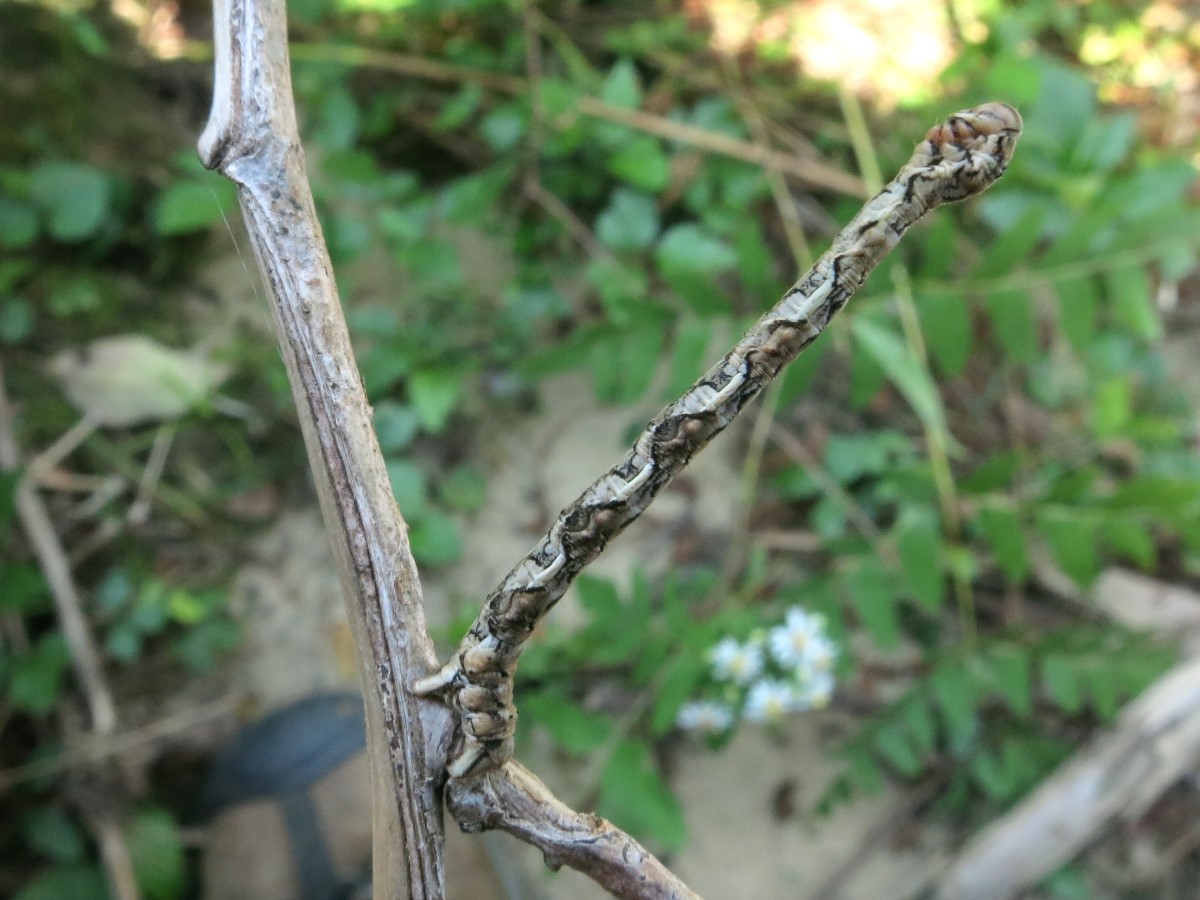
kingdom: Animalia
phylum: Arthropoda
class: Insecta
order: Lepidoptera
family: Geometridae
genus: Patalene
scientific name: Patalene olyzonaria
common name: Juniper geometer moth
